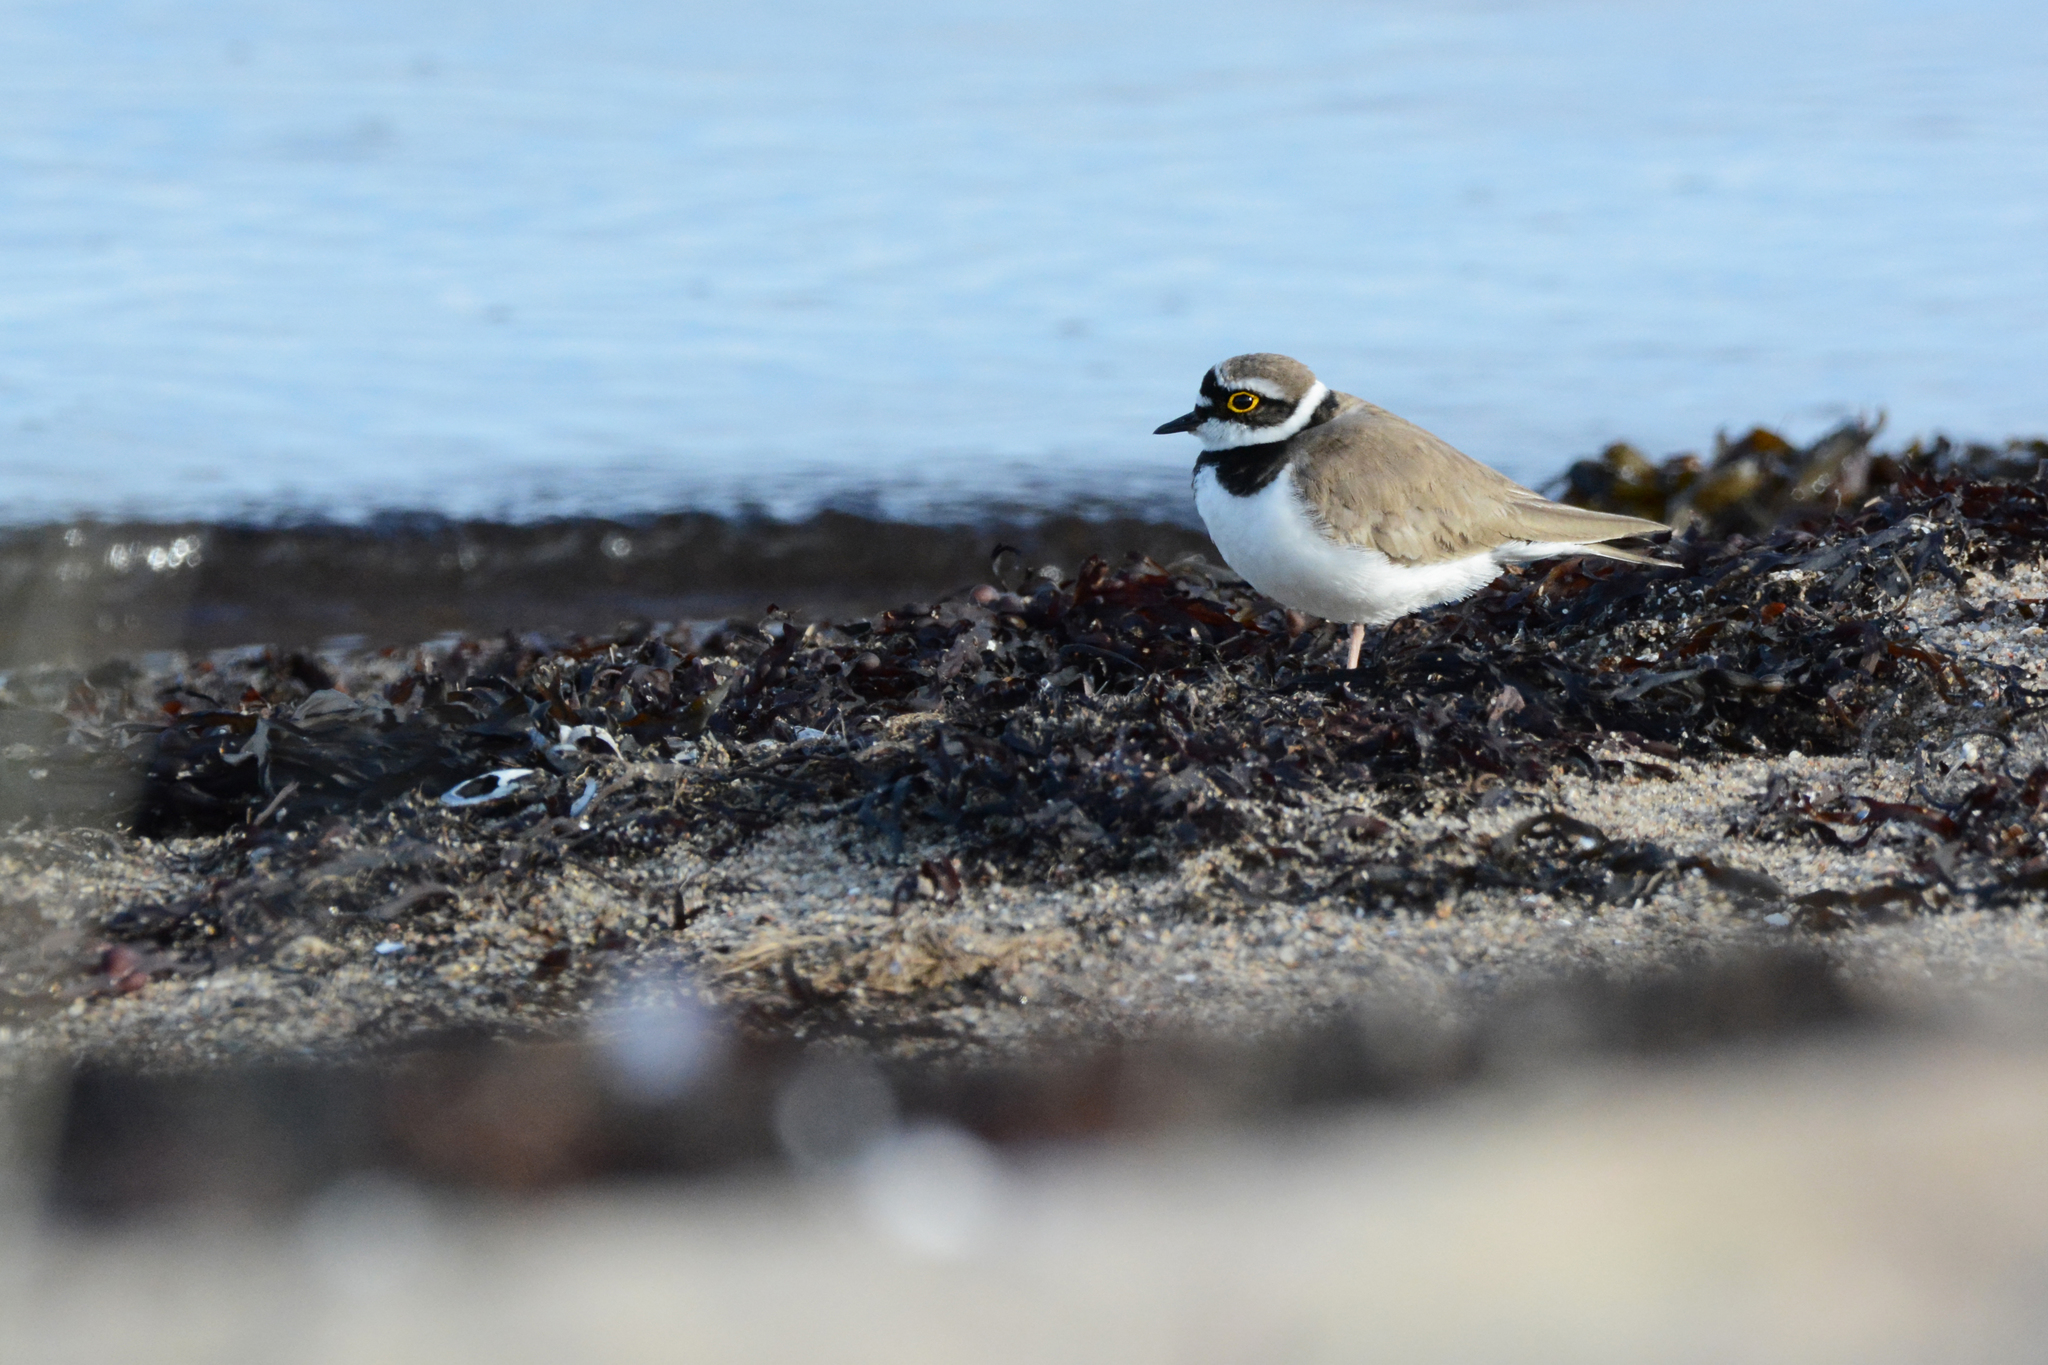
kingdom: Animalia
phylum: Chordata
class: Aves
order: Charadriiformes
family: Charadriidae
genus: Charadrius
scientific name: Charadrius dubius
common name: Little ringed plover
